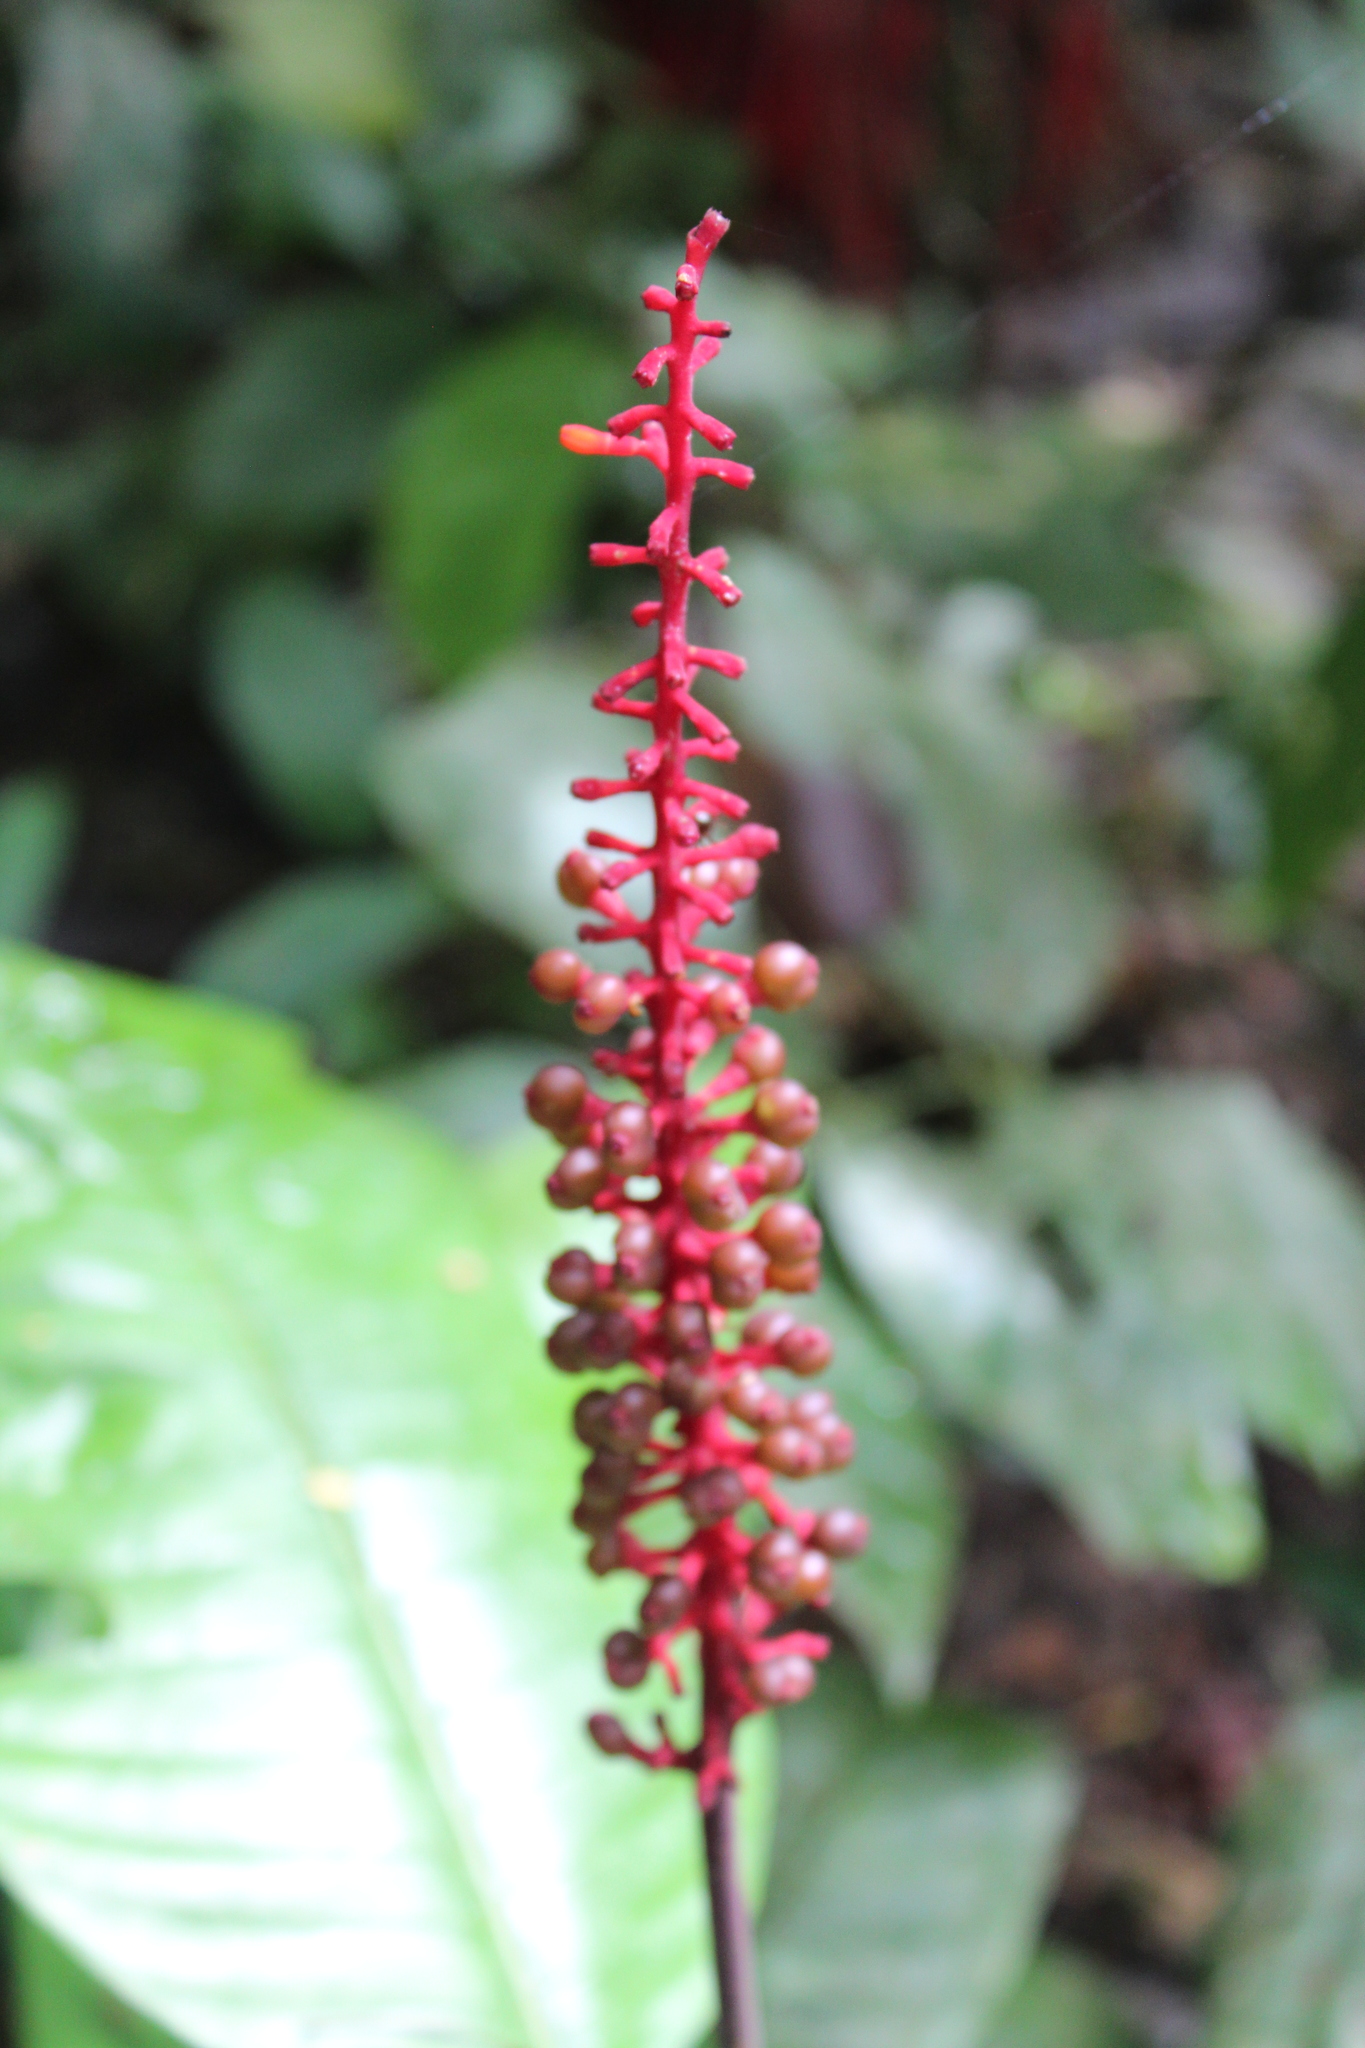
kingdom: Plantae
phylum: Tracheophyta
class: Magnoliopsida
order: Gentianales
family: Rubiaceae
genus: Palicourea
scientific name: Palicourea subspicata
